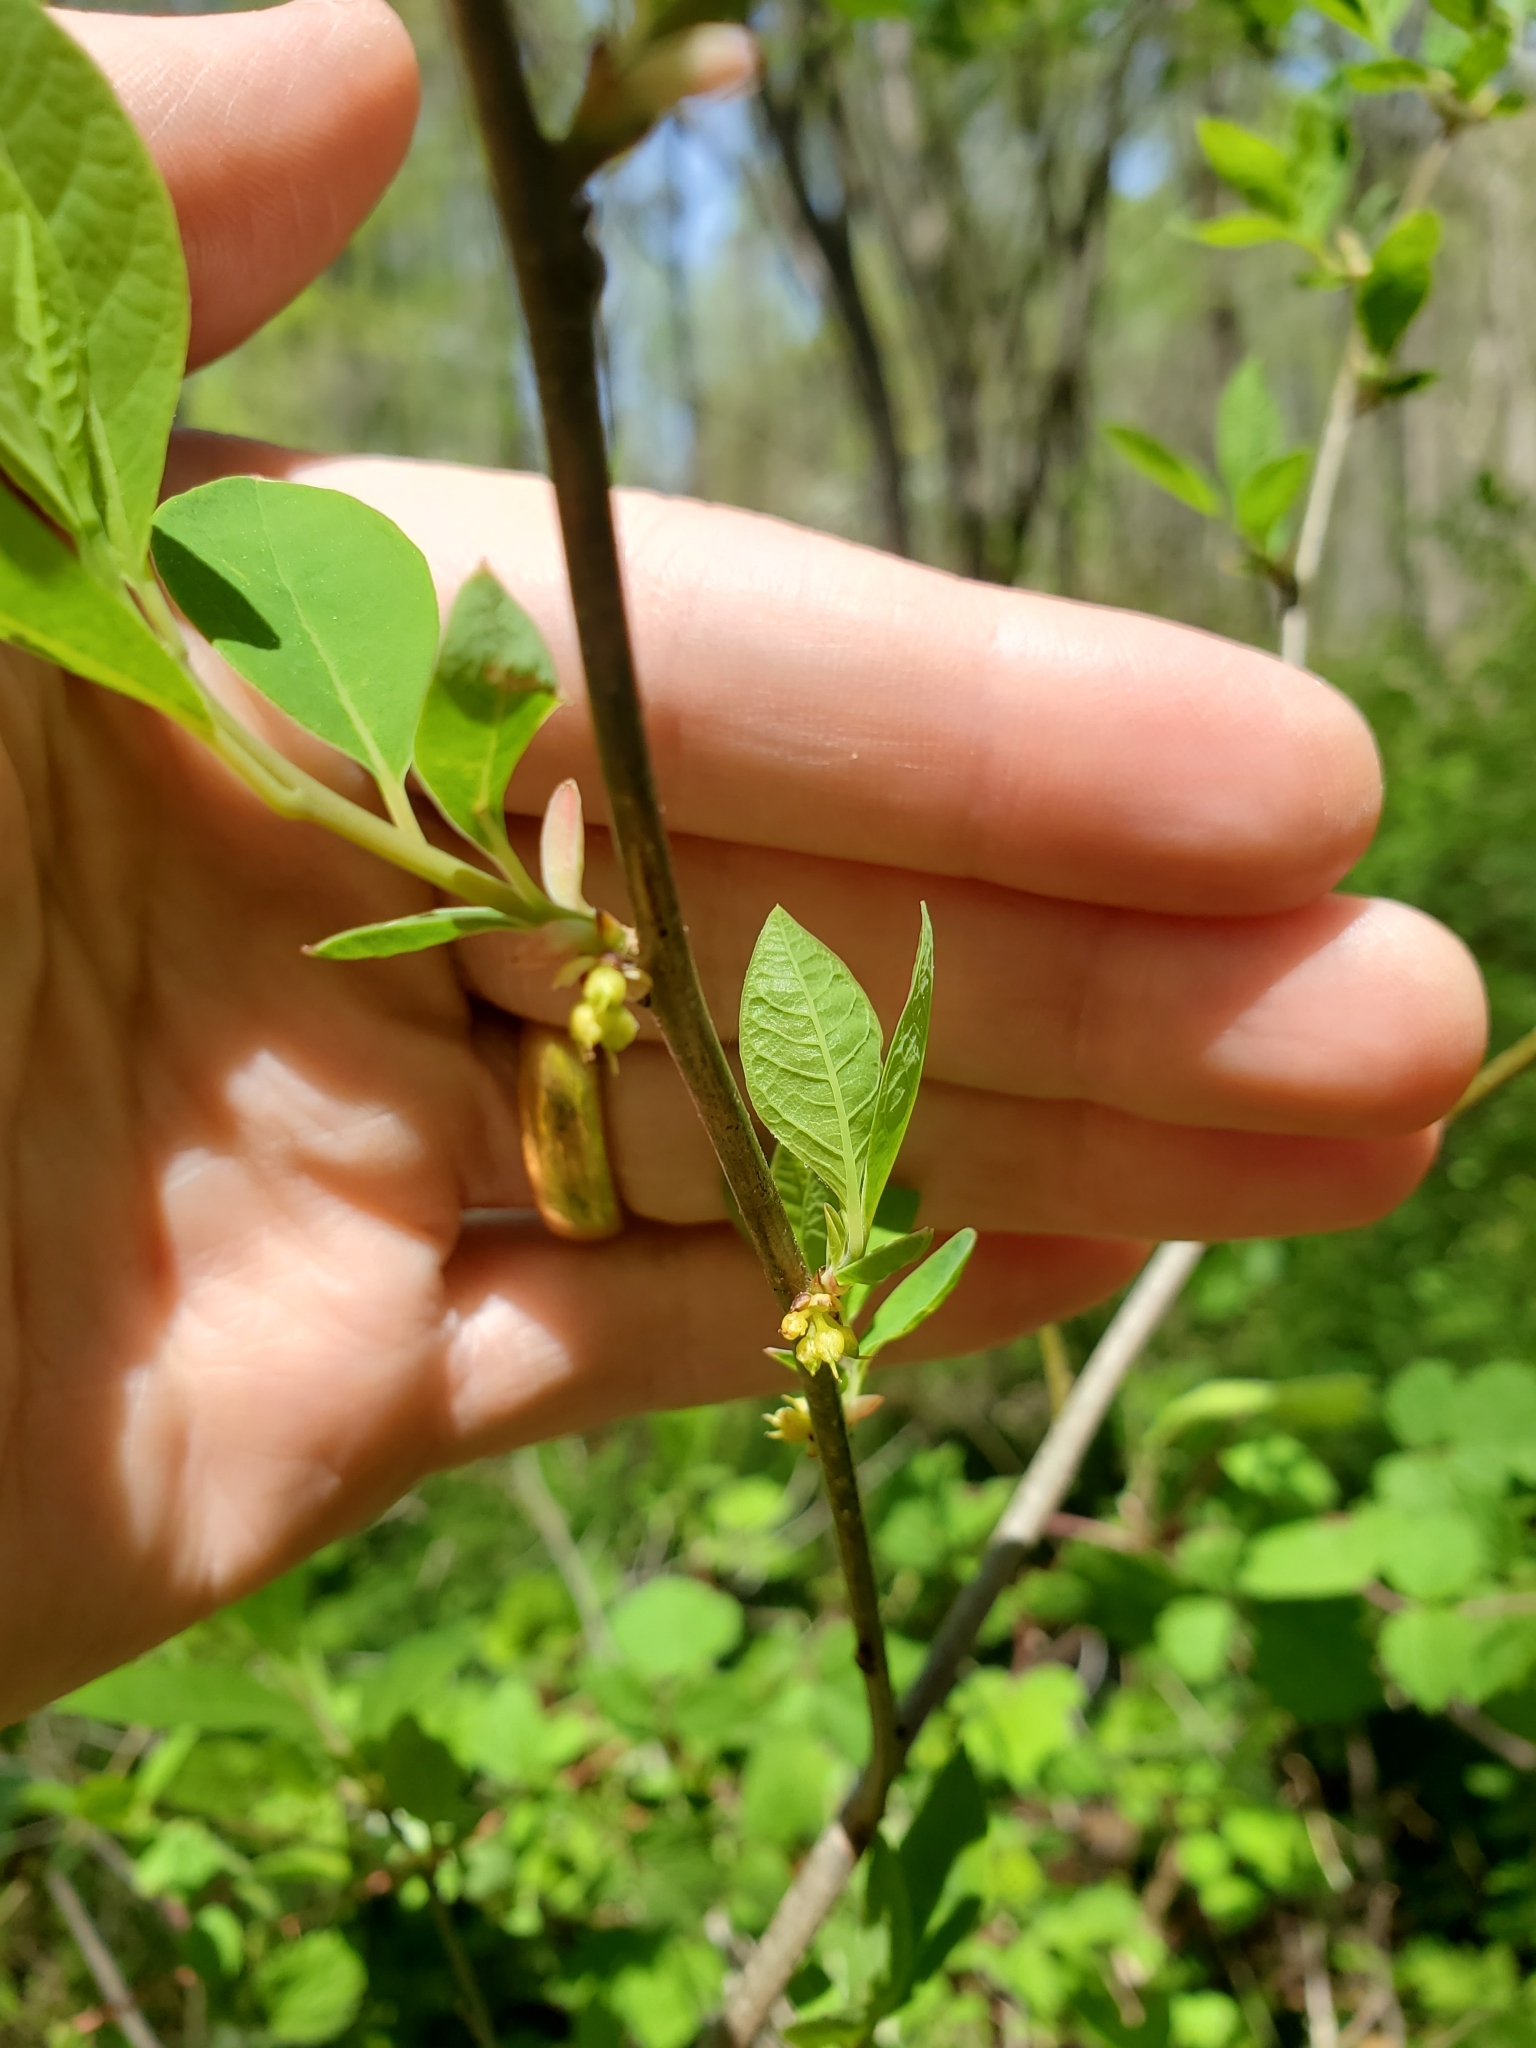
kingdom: Plantae
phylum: Tracheophyta
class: Magnoliopsida
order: Laurales
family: Lauraceae
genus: Lindera
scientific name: Lindera benzoin
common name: Spicebush
